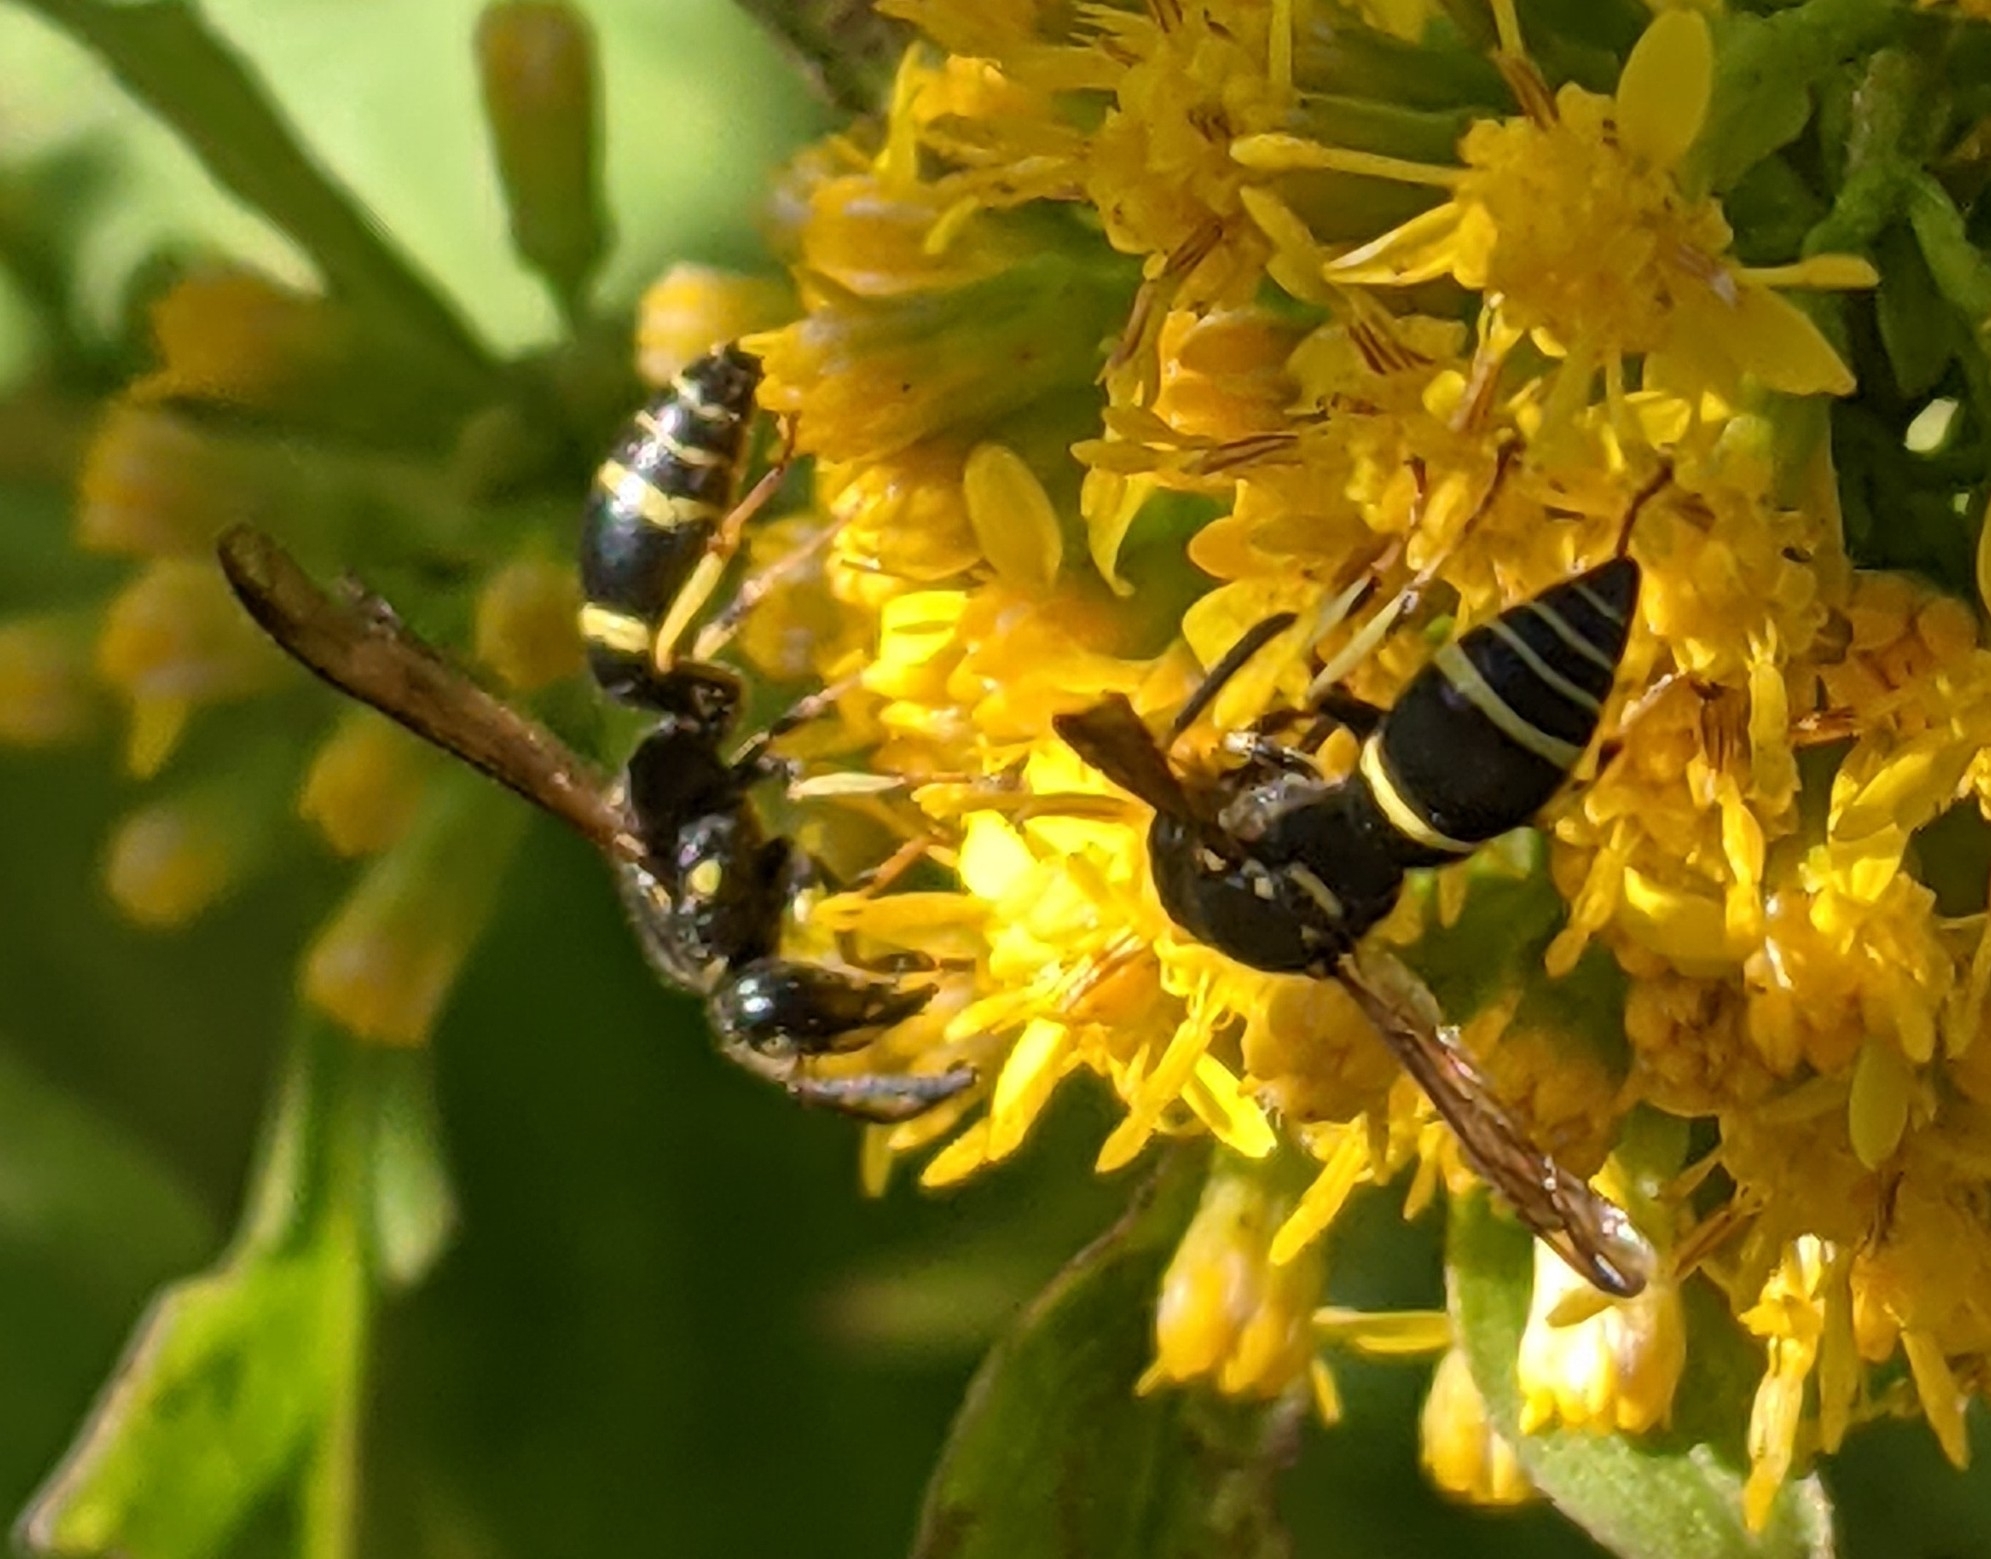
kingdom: Animalia
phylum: Arthropoda
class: Insecta
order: Hymenoptera
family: Vespidae
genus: Ancistrocerus
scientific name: Ancistrocerus adiabatus
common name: Bramble mason wasp
